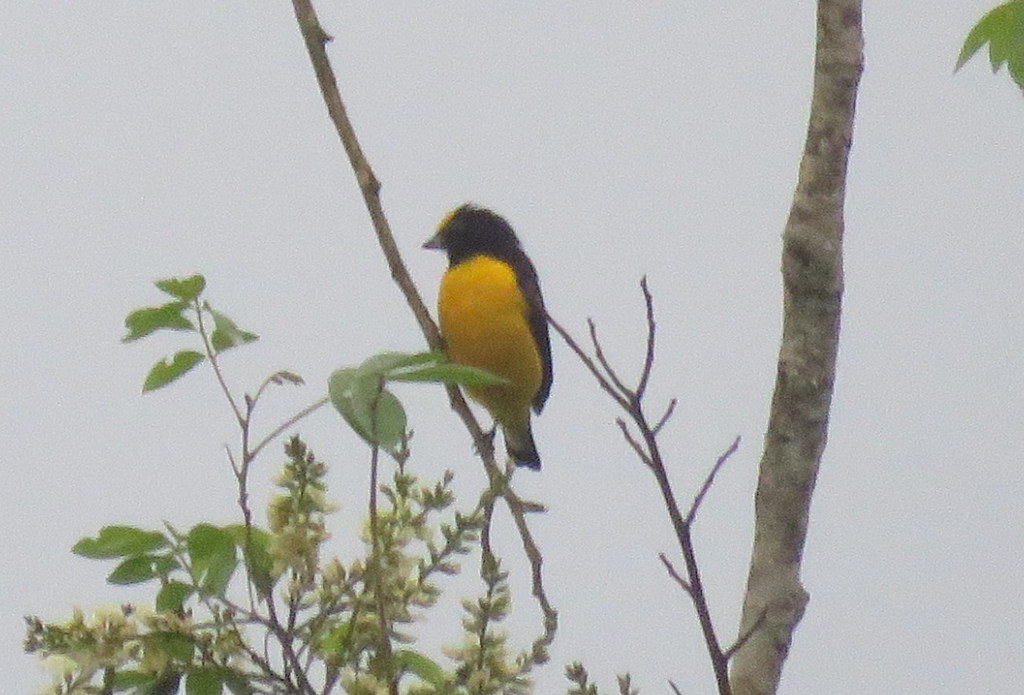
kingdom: Animalia
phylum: Chordata
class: Aves
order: Passeriformes
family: Fringillidae
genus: Euphonia
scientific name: Euphonia chlorotica
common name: Purple-throated euphonia
